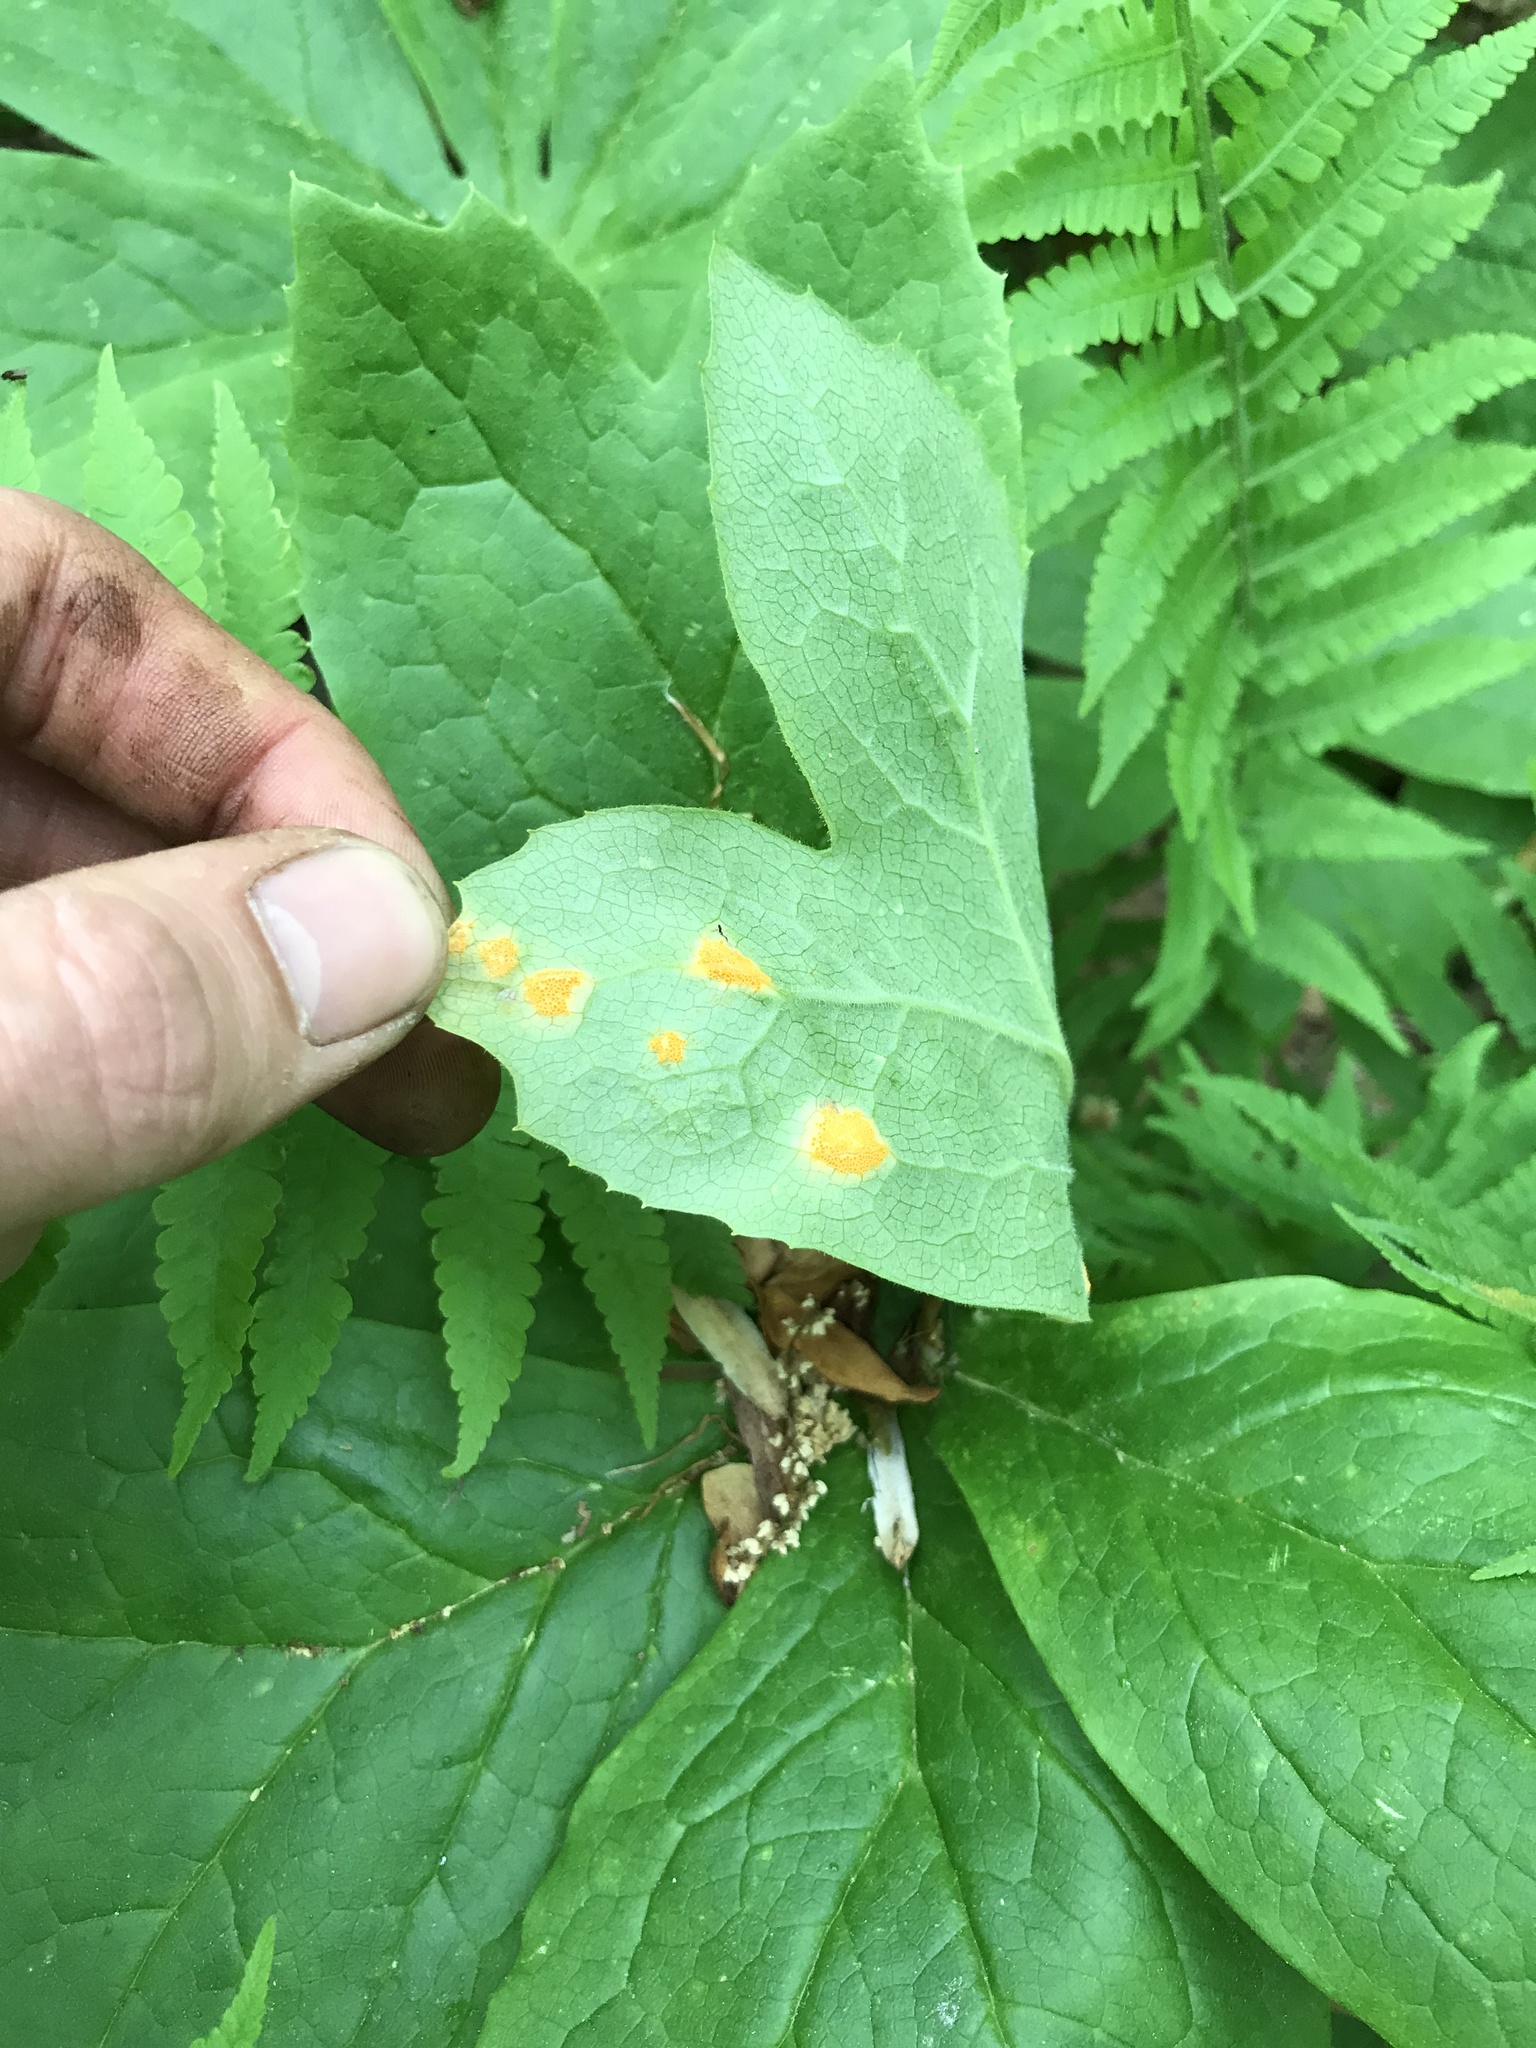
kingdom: Fungi
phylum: Basidiomycota
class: Pucciniomycetes
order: Pucciniales
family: Pucciniaceae
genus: Puccinia
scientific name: Puccinia podophylli
